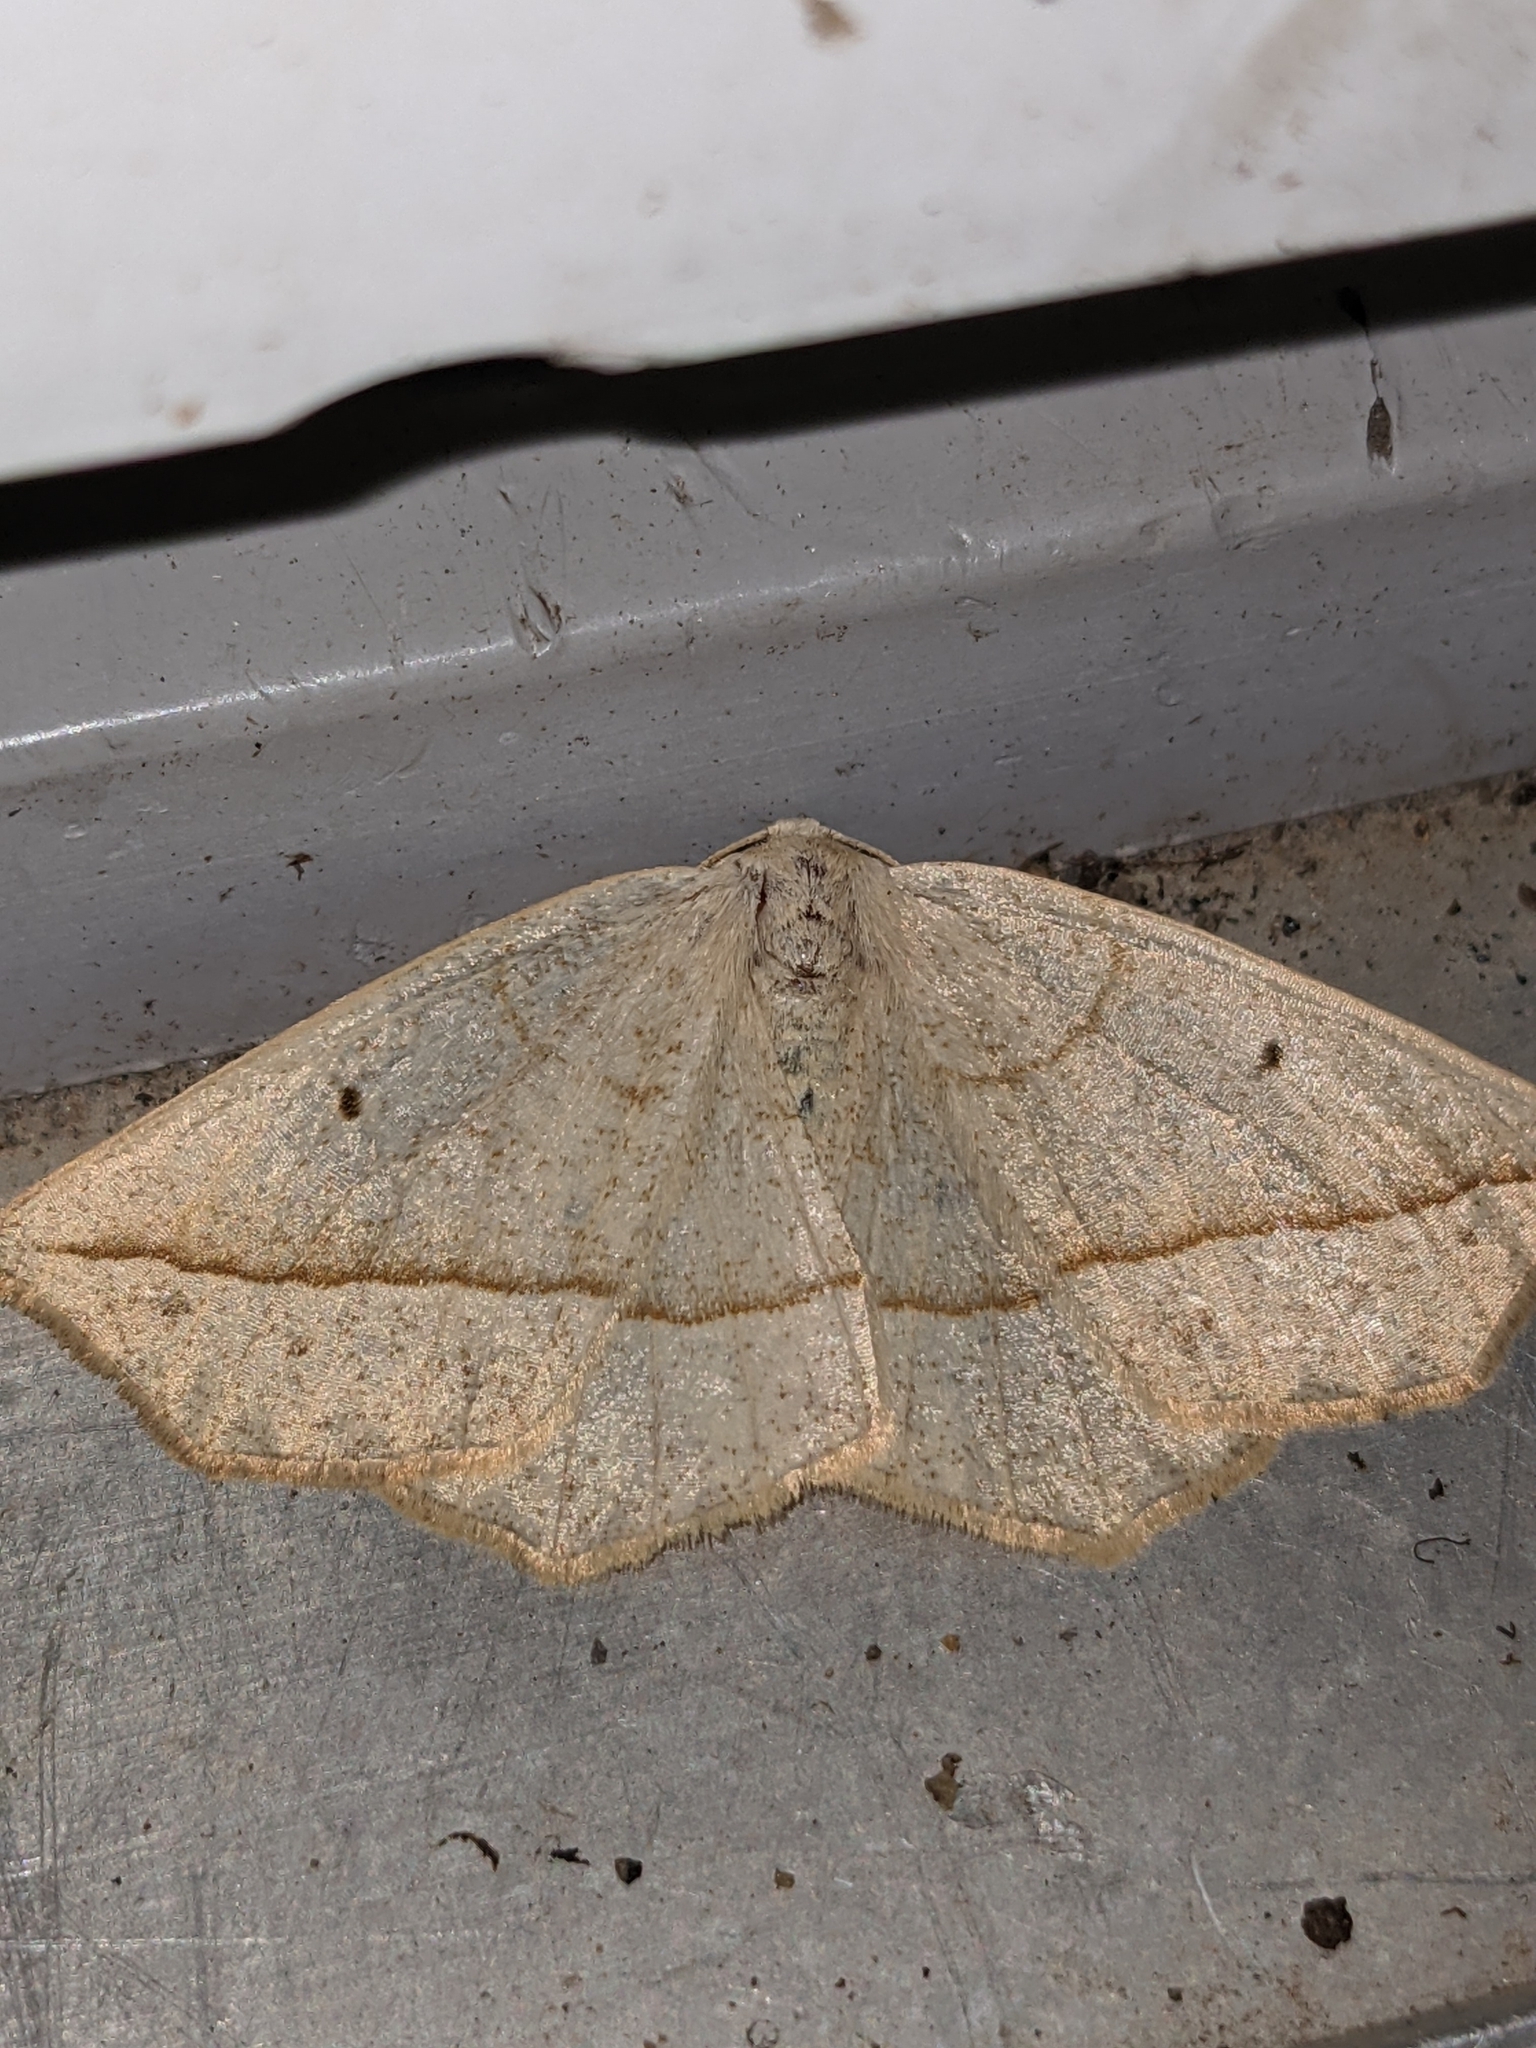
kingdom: Animalia
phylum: Arthropoda
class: Insecta
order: Lepidoptera
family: Geometridae
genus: Eusarca
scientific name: Eusarca confusaria
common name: Confused eusarca
